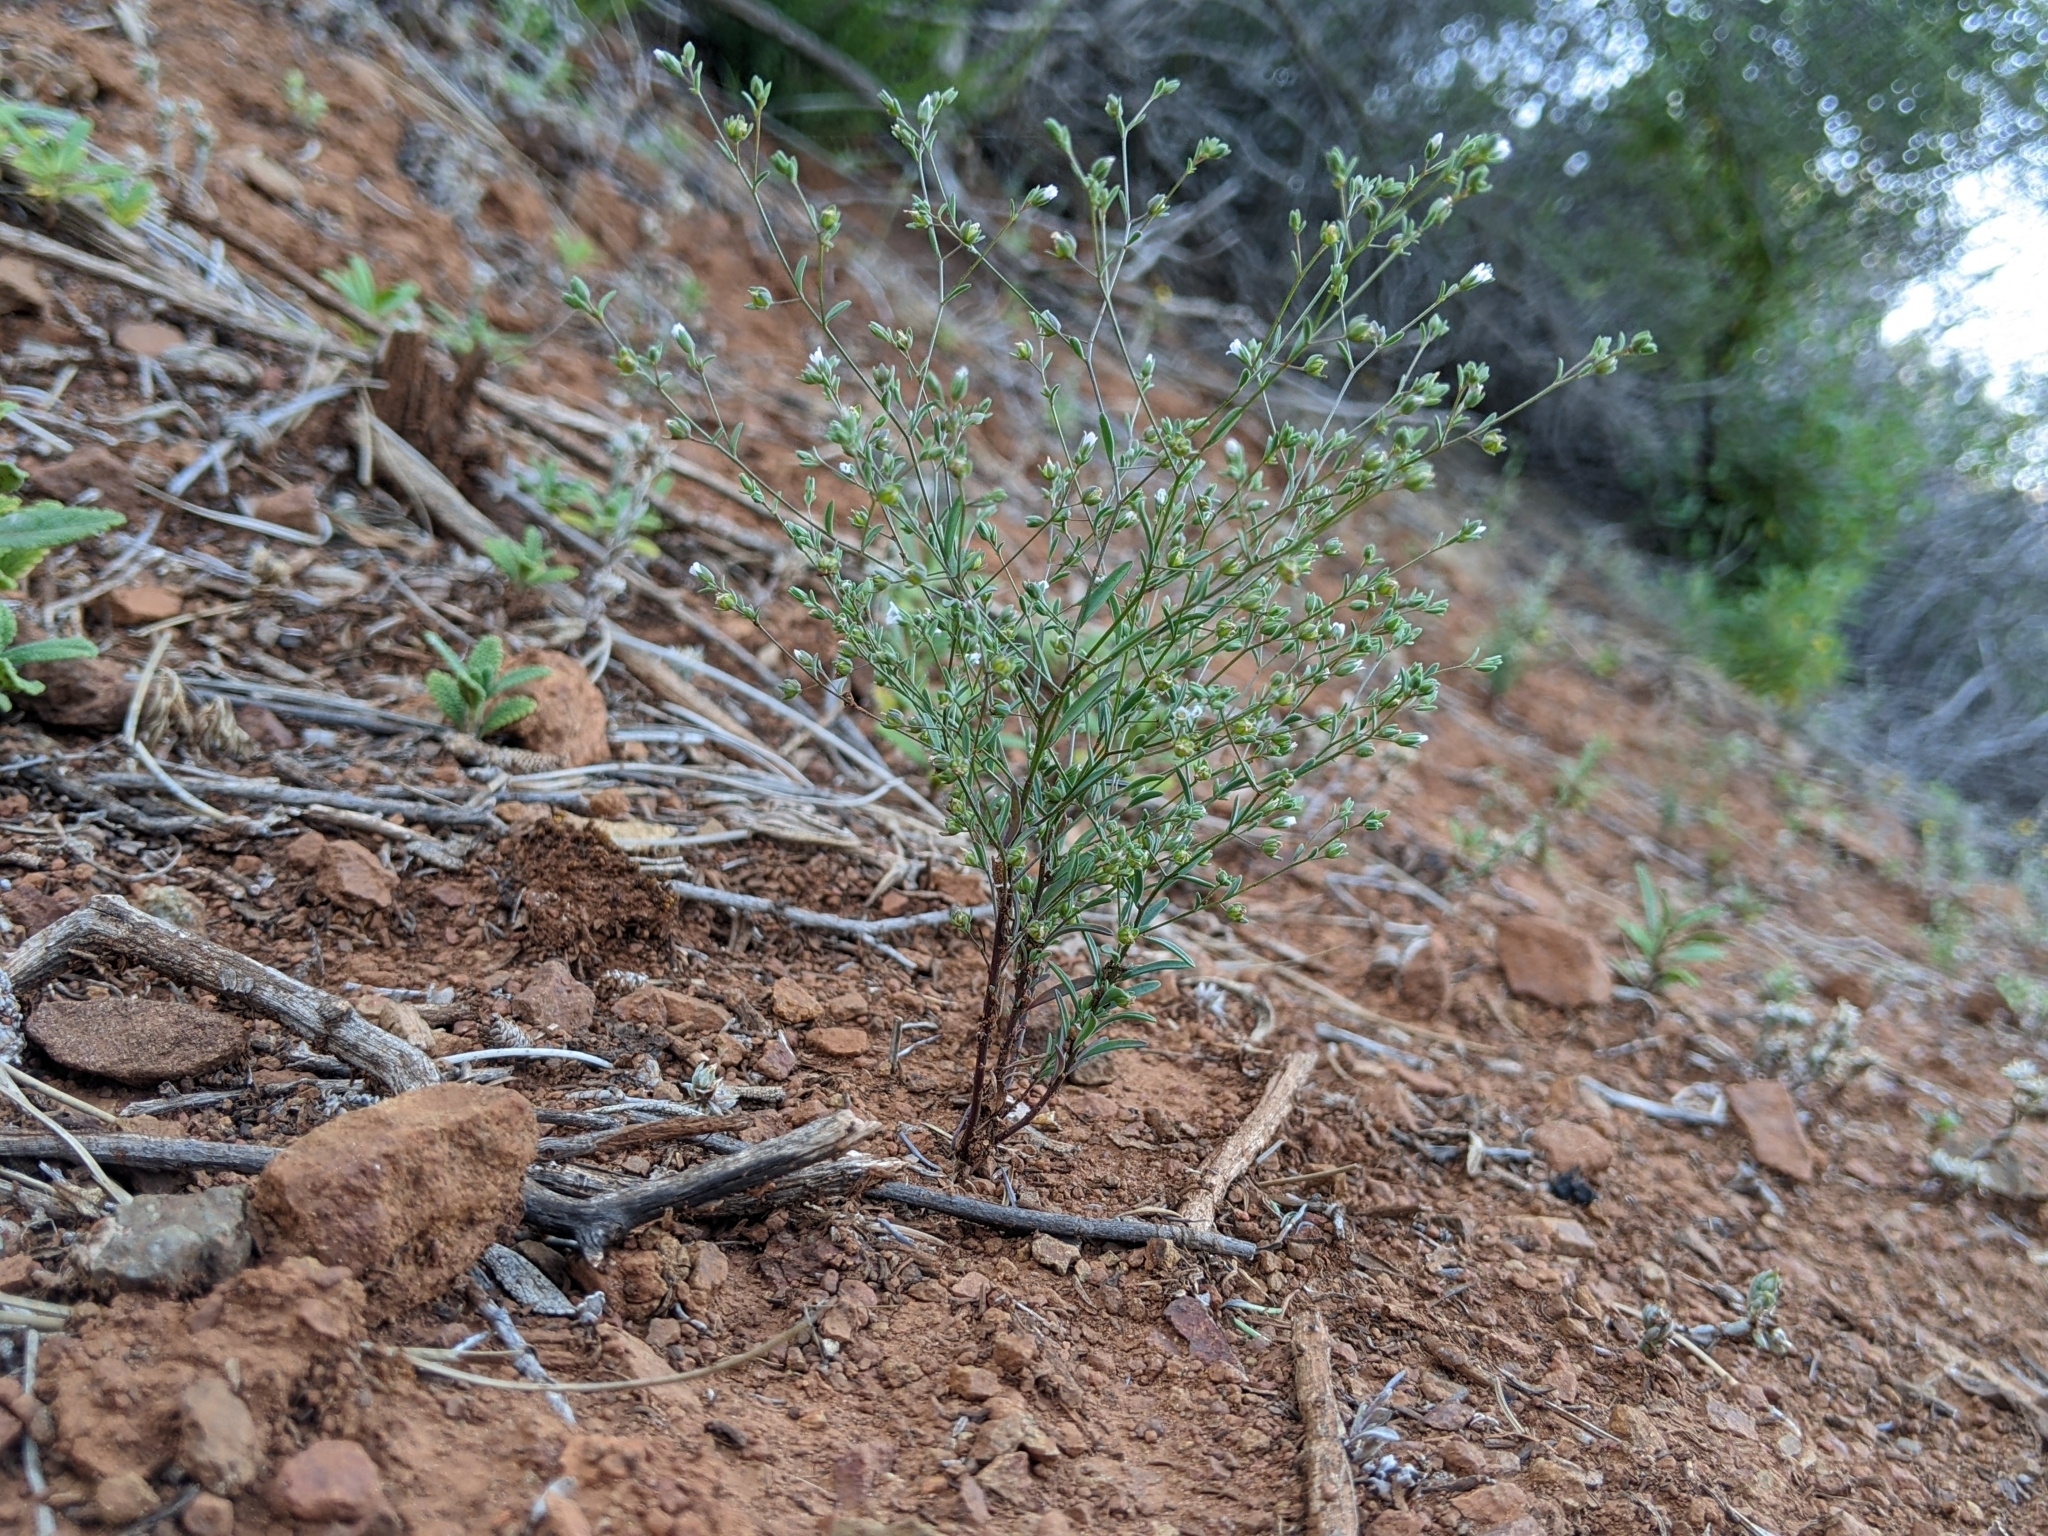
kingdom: Plantae
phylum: Tracheophyta
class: Magnoliopsida
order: Malpighiales
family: Linaceae
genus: Hesperolinon
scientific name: Hesperolinon micranthum
